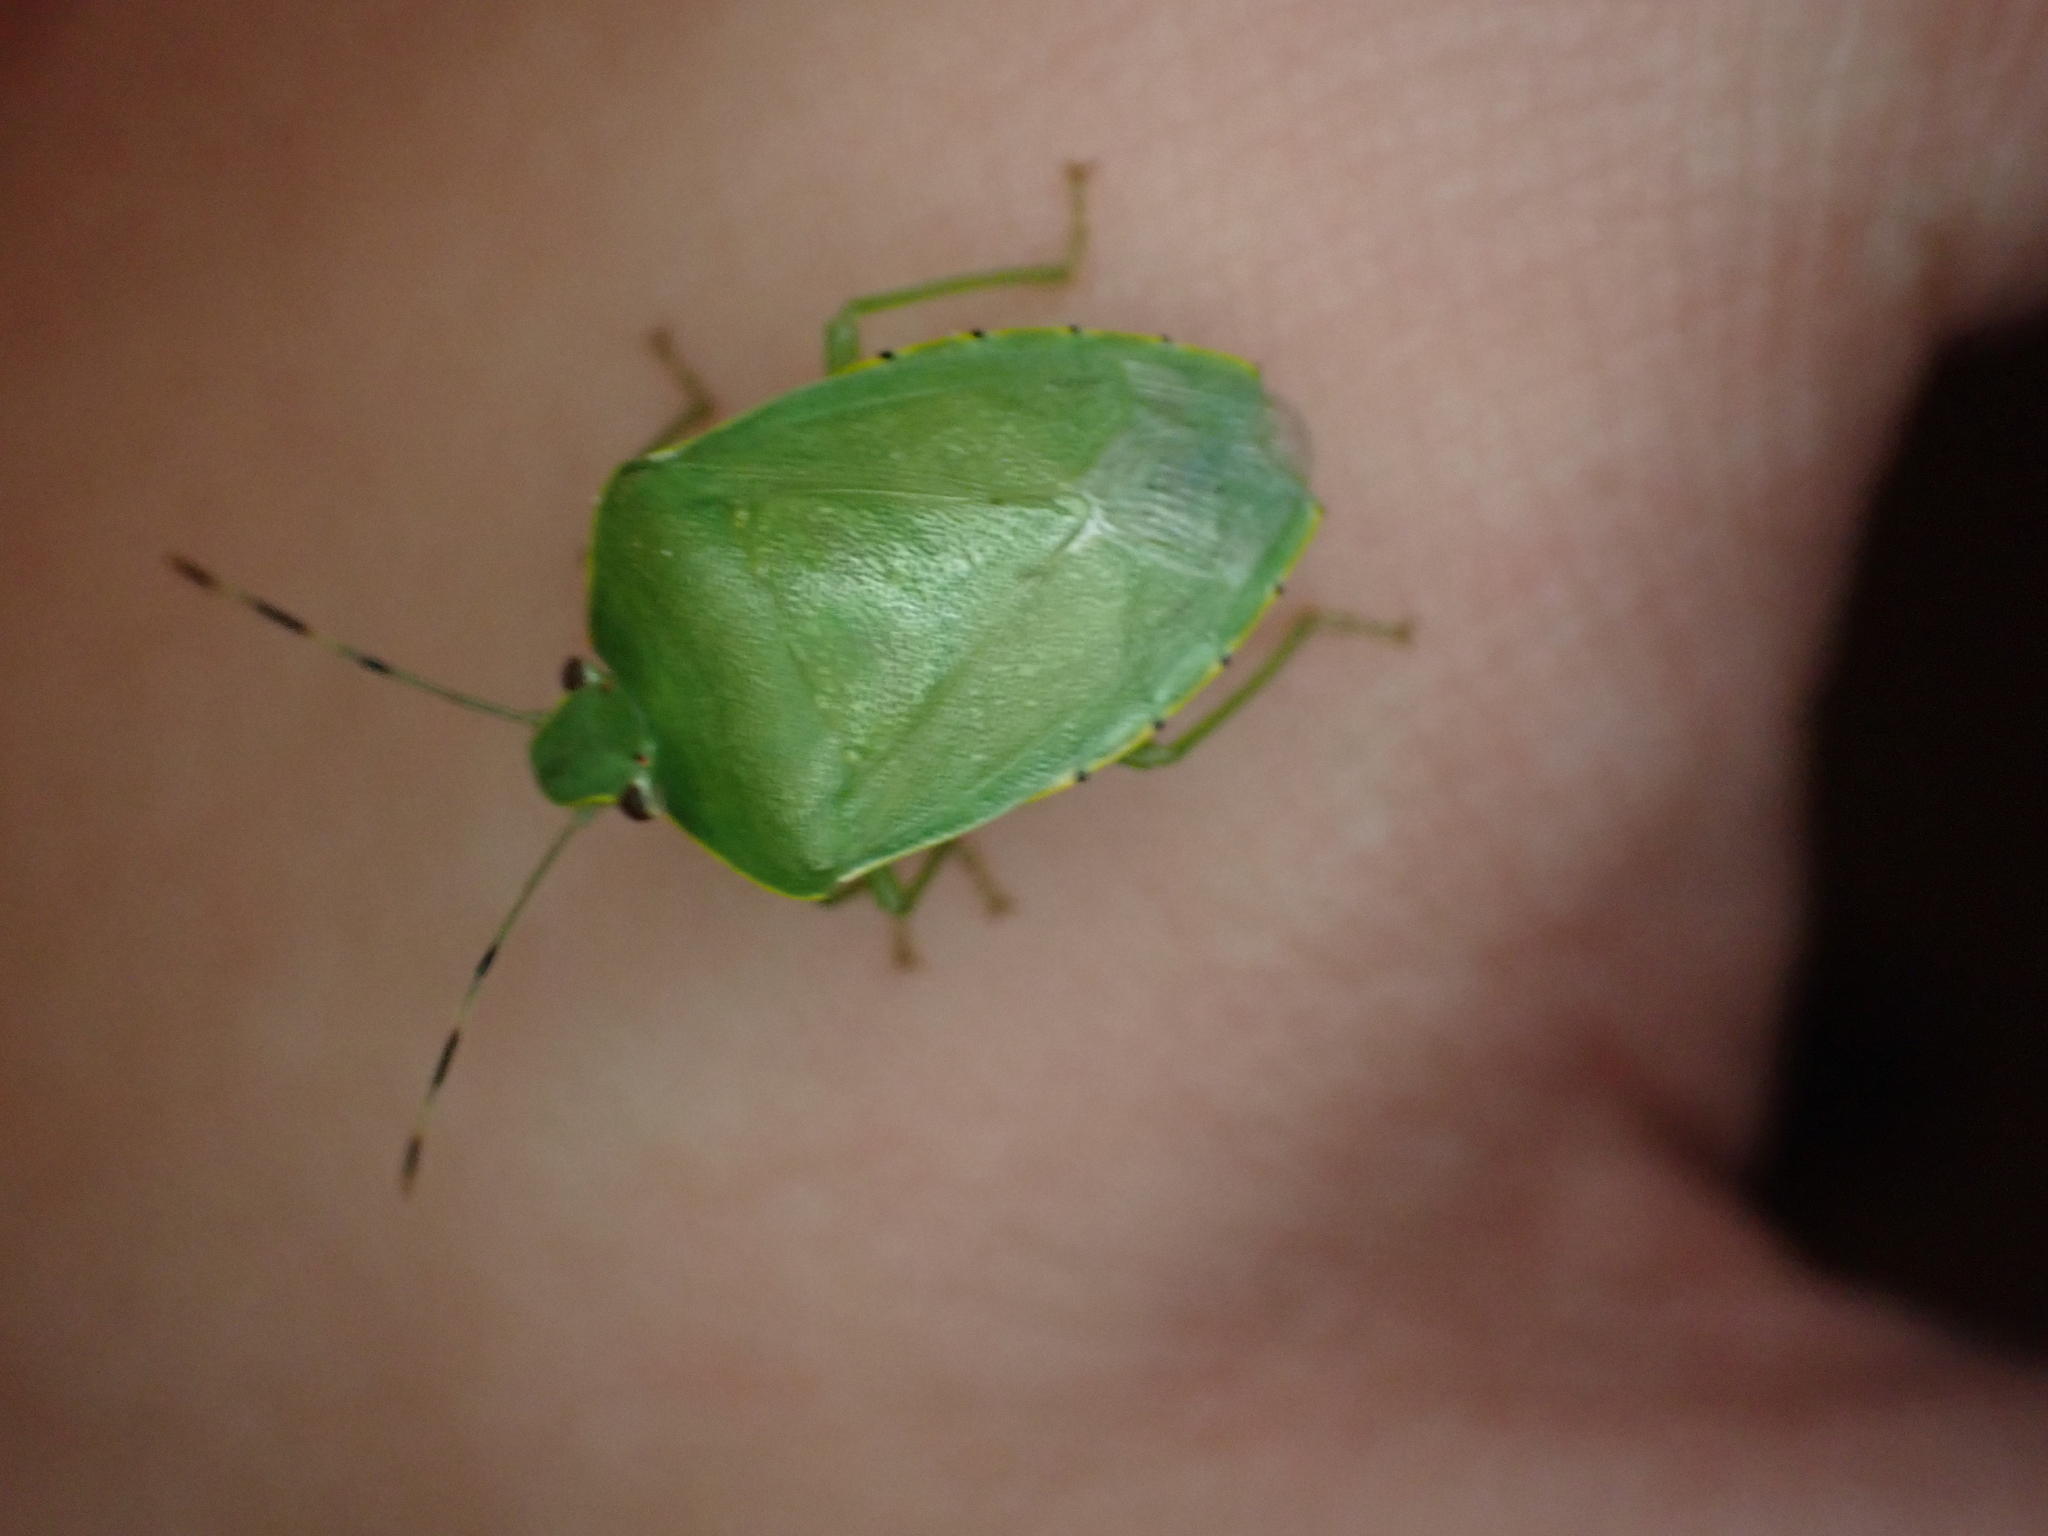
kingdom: Animalia
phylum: Arthropoda
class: Insecta
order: Hemiptera
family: Pentatomidae
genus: Chinavia
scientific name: Chinavia hilaris
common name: Green stink bug
